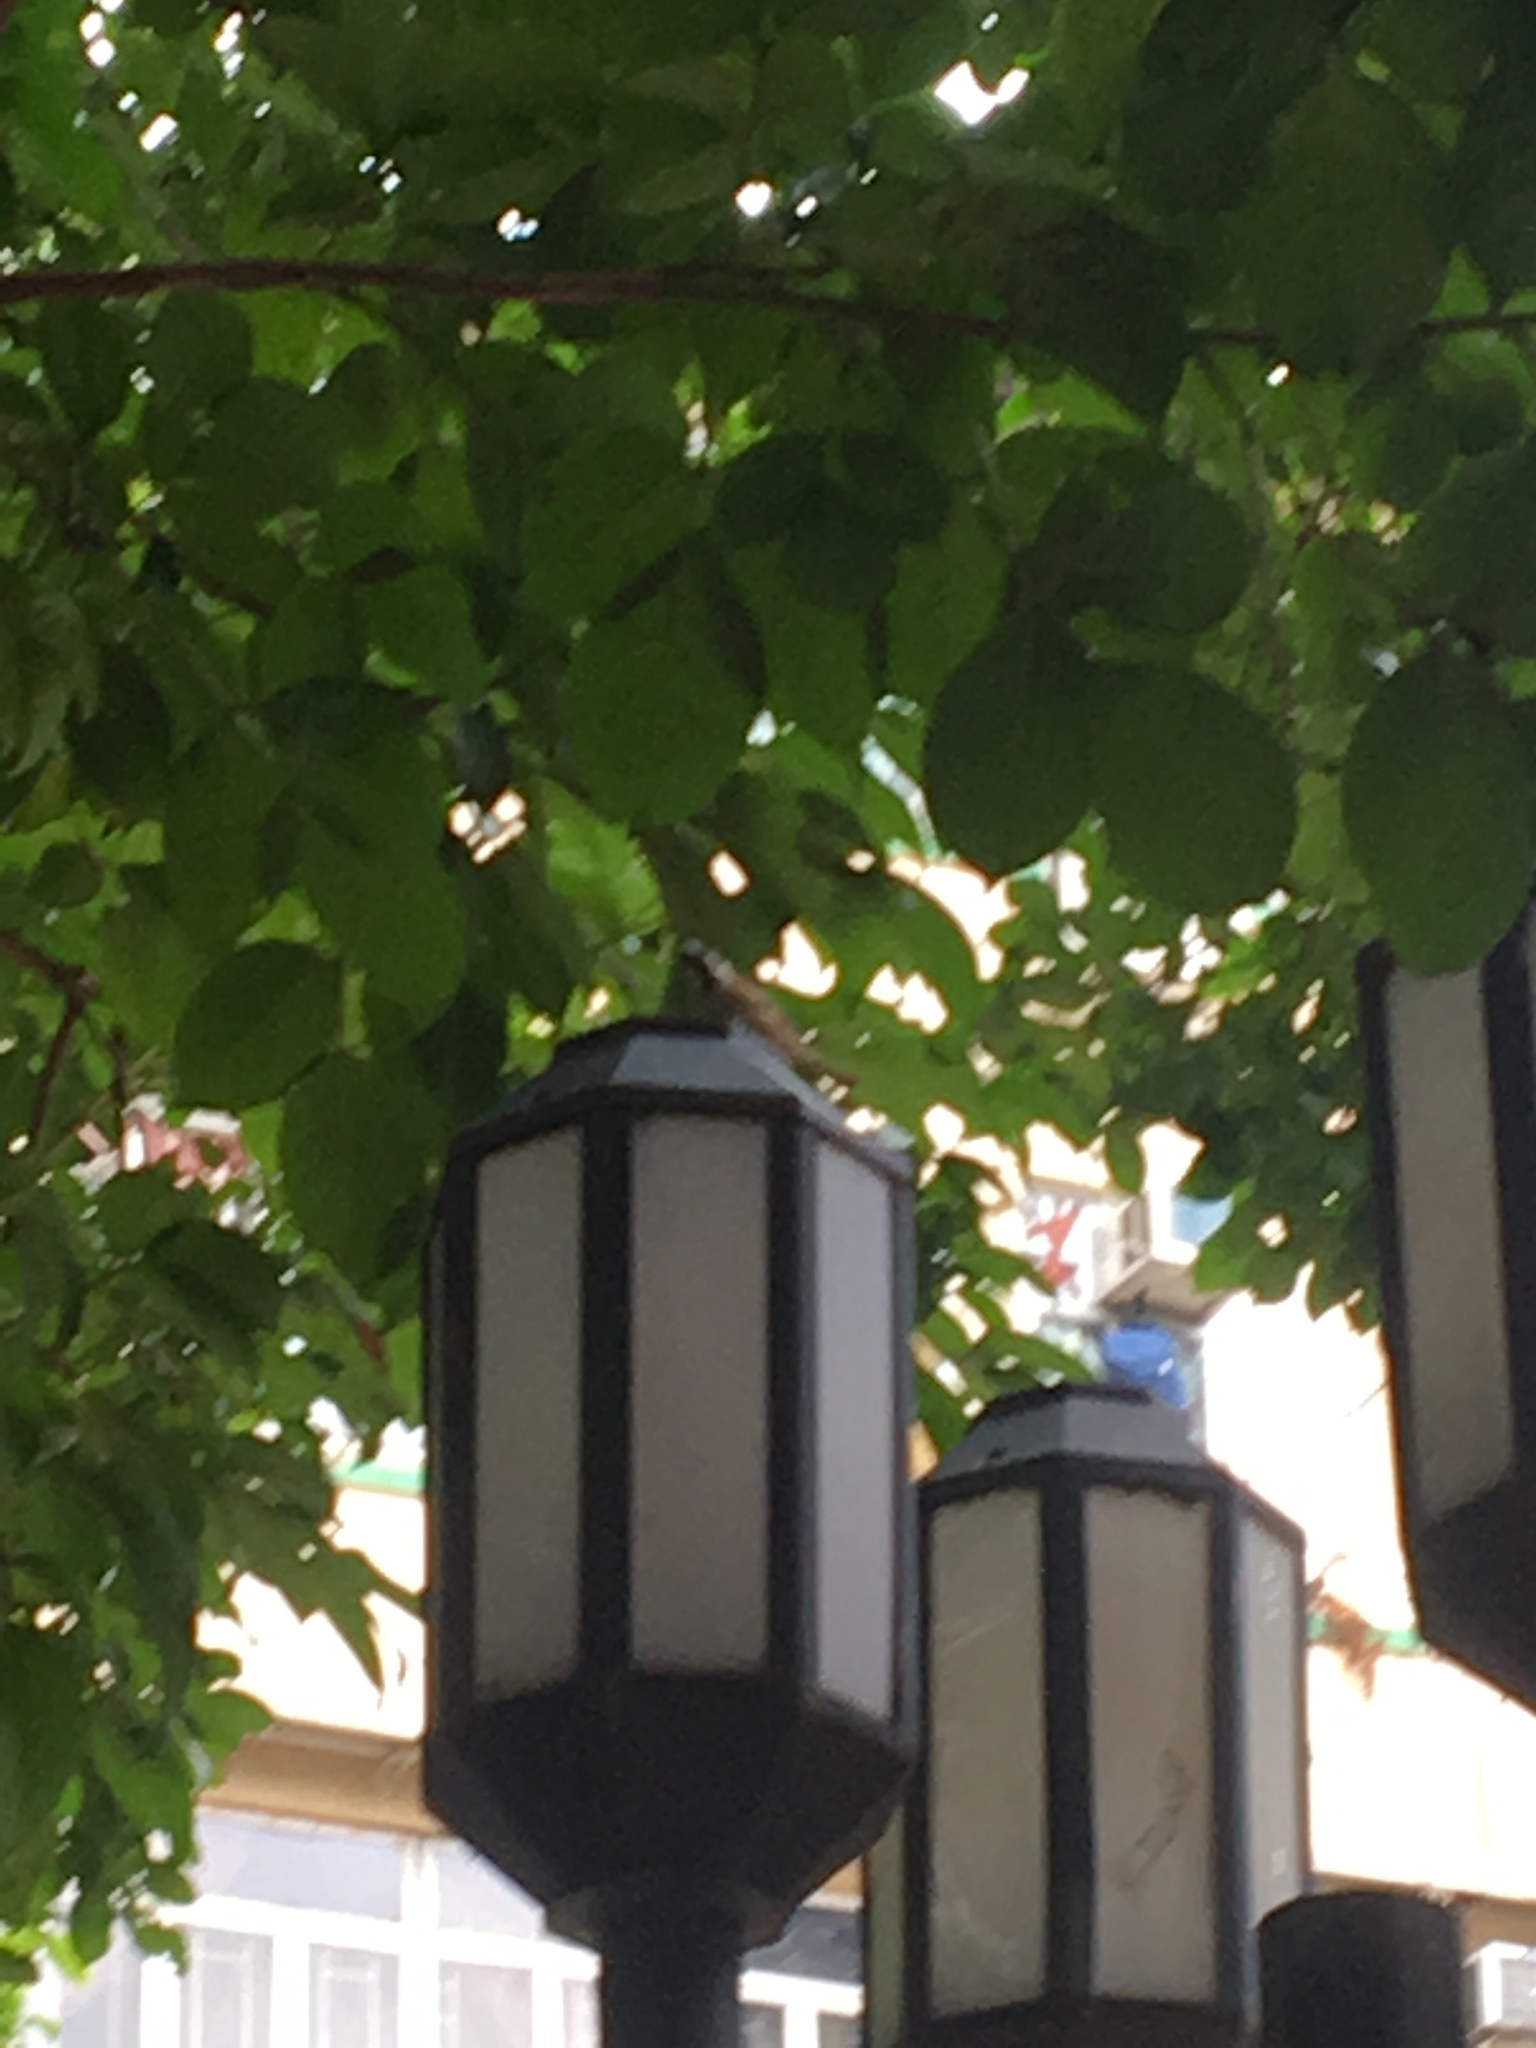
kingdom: Animalia
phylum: Chordata
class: Aves
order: Passeriformes
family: Passeridae
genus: Passer
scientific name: Passer montanus
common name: Eurasian tree sparrow
